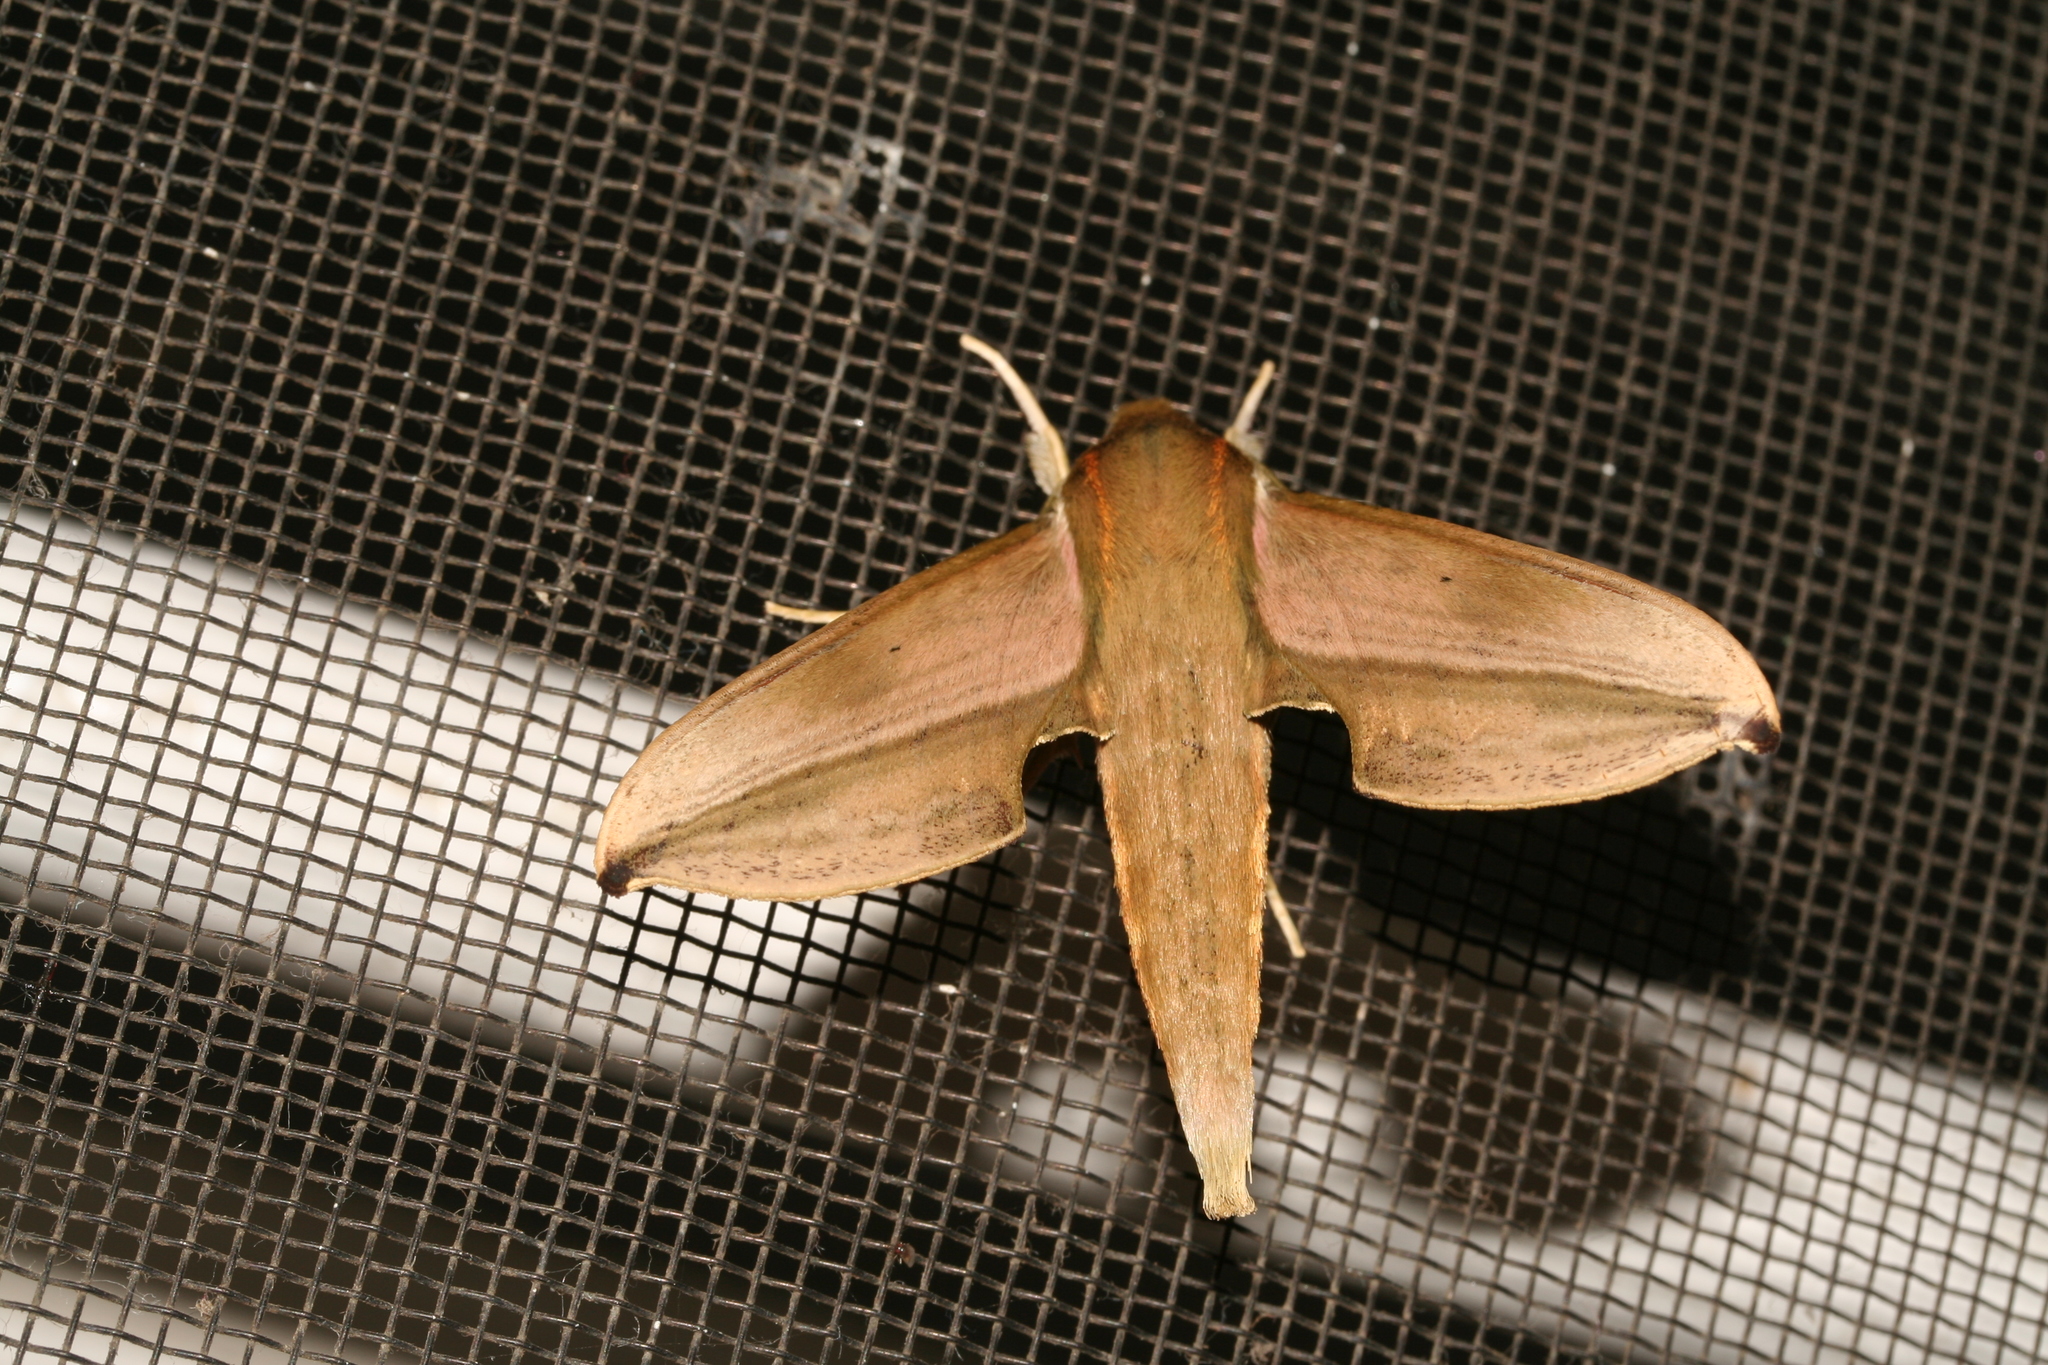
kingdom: Animalia
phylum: Arthropoda
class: Insecta
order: Lepidoptera
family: Sphingidae
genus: Rhagastis
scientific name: Rhagastis lambertoni
